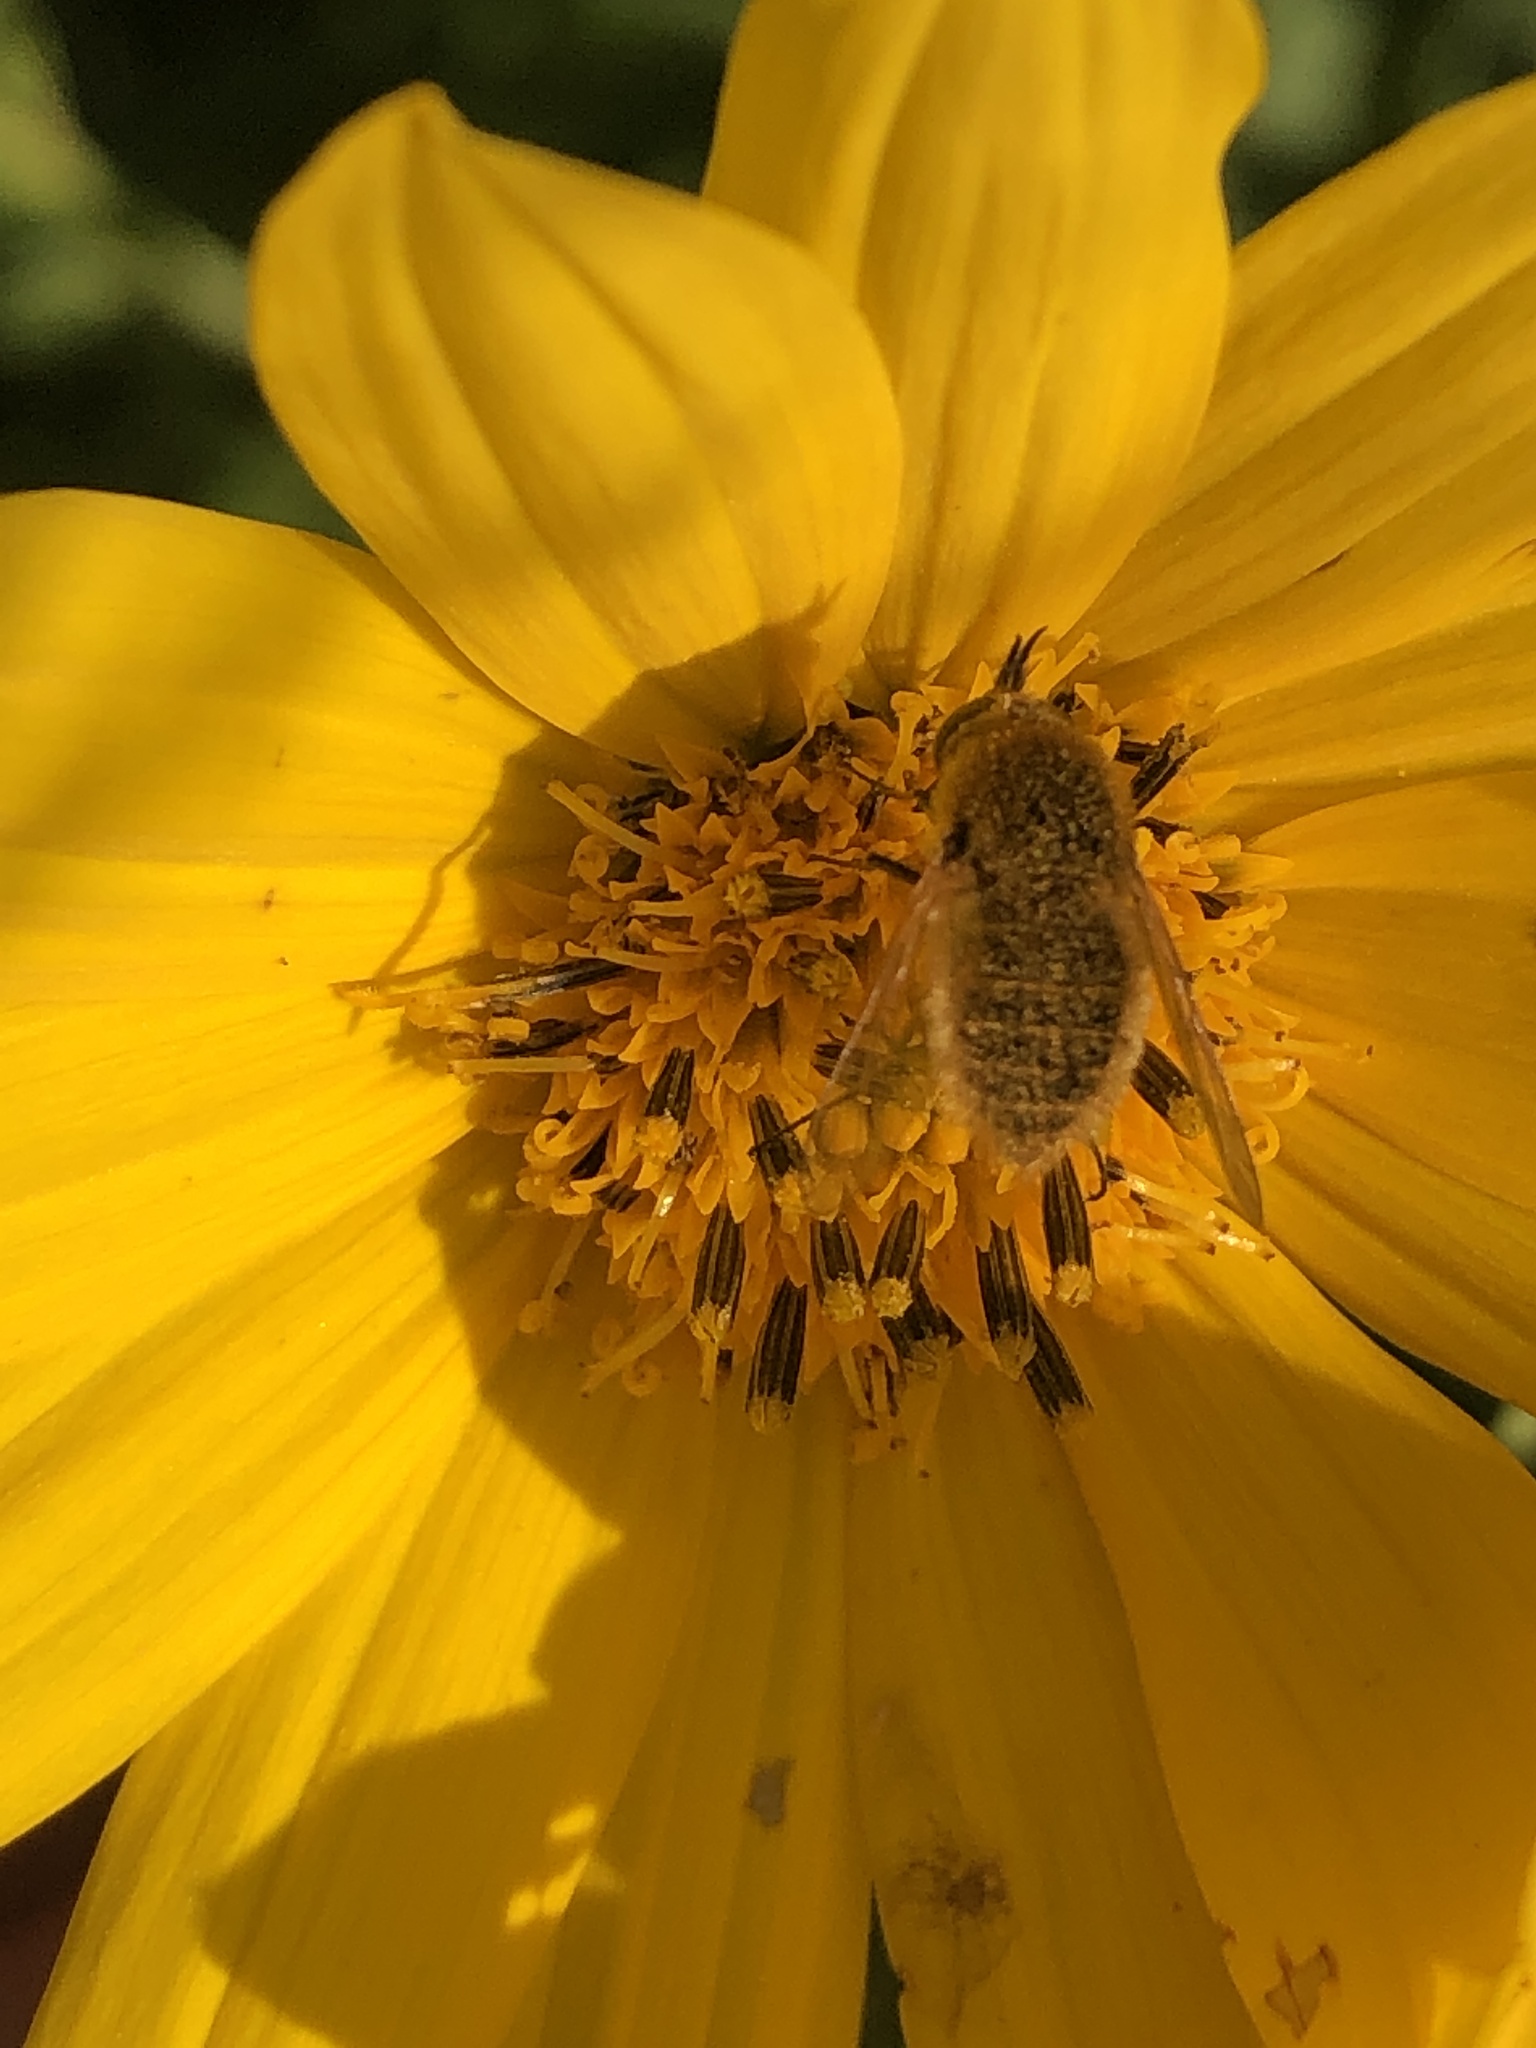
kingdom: Animalia
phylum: Arthropoda
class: Insecta
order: Diptera
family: Bombyliidae
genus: Sparnopolius
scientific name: Sparnopolius confusus
